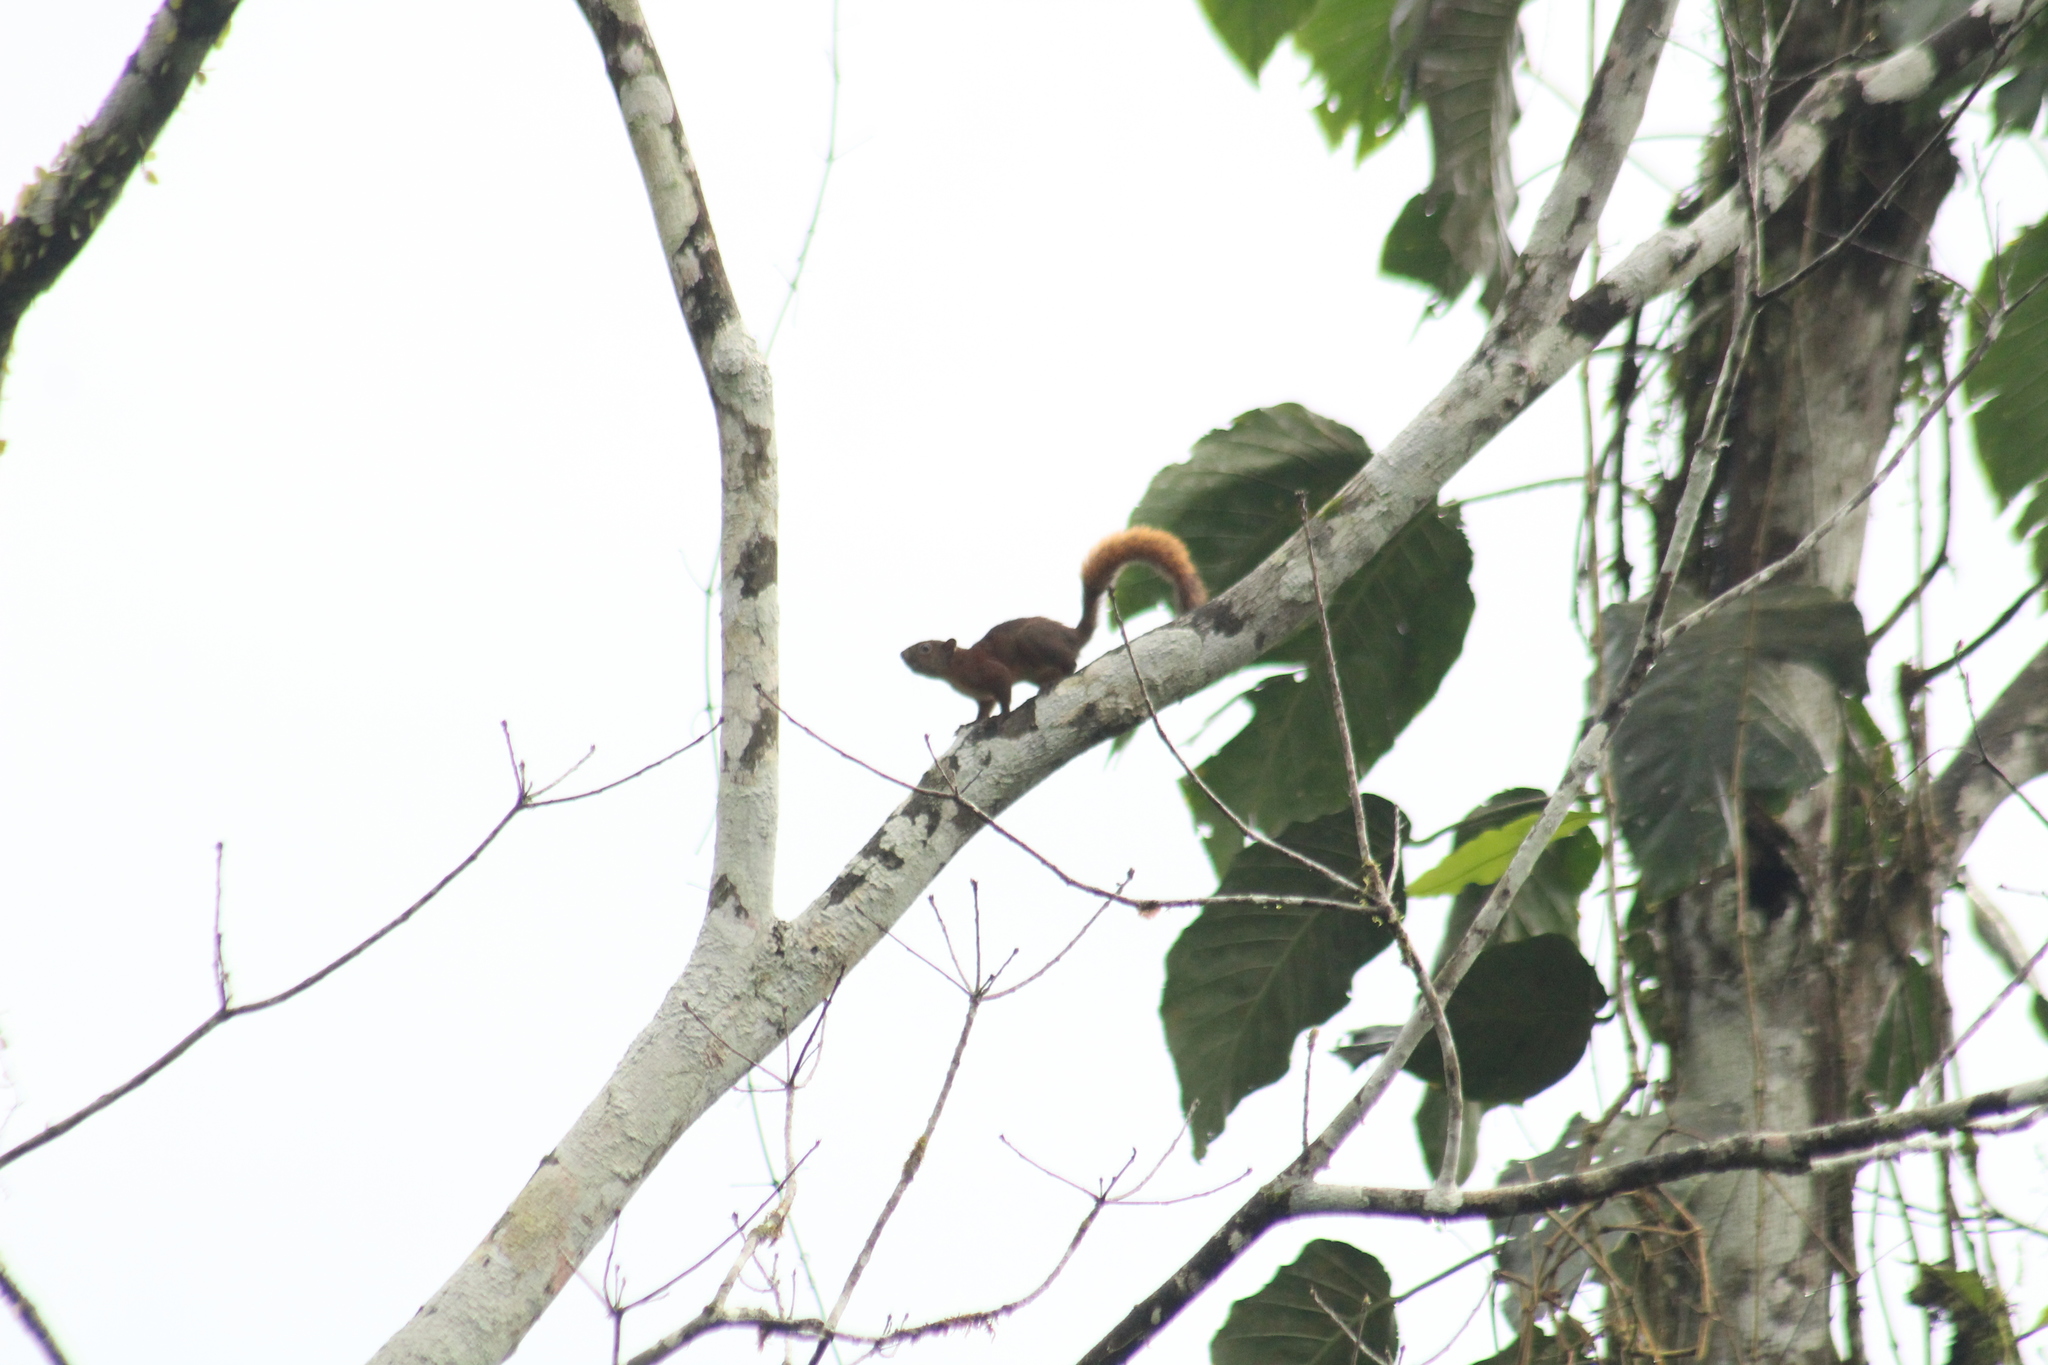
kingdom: Animalia
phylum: Chordata
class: Mammalia
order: Rodentia
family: Sciuridae
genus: Sciurus
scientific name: Sciurus granatensis
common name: Red-tailed squirrel
